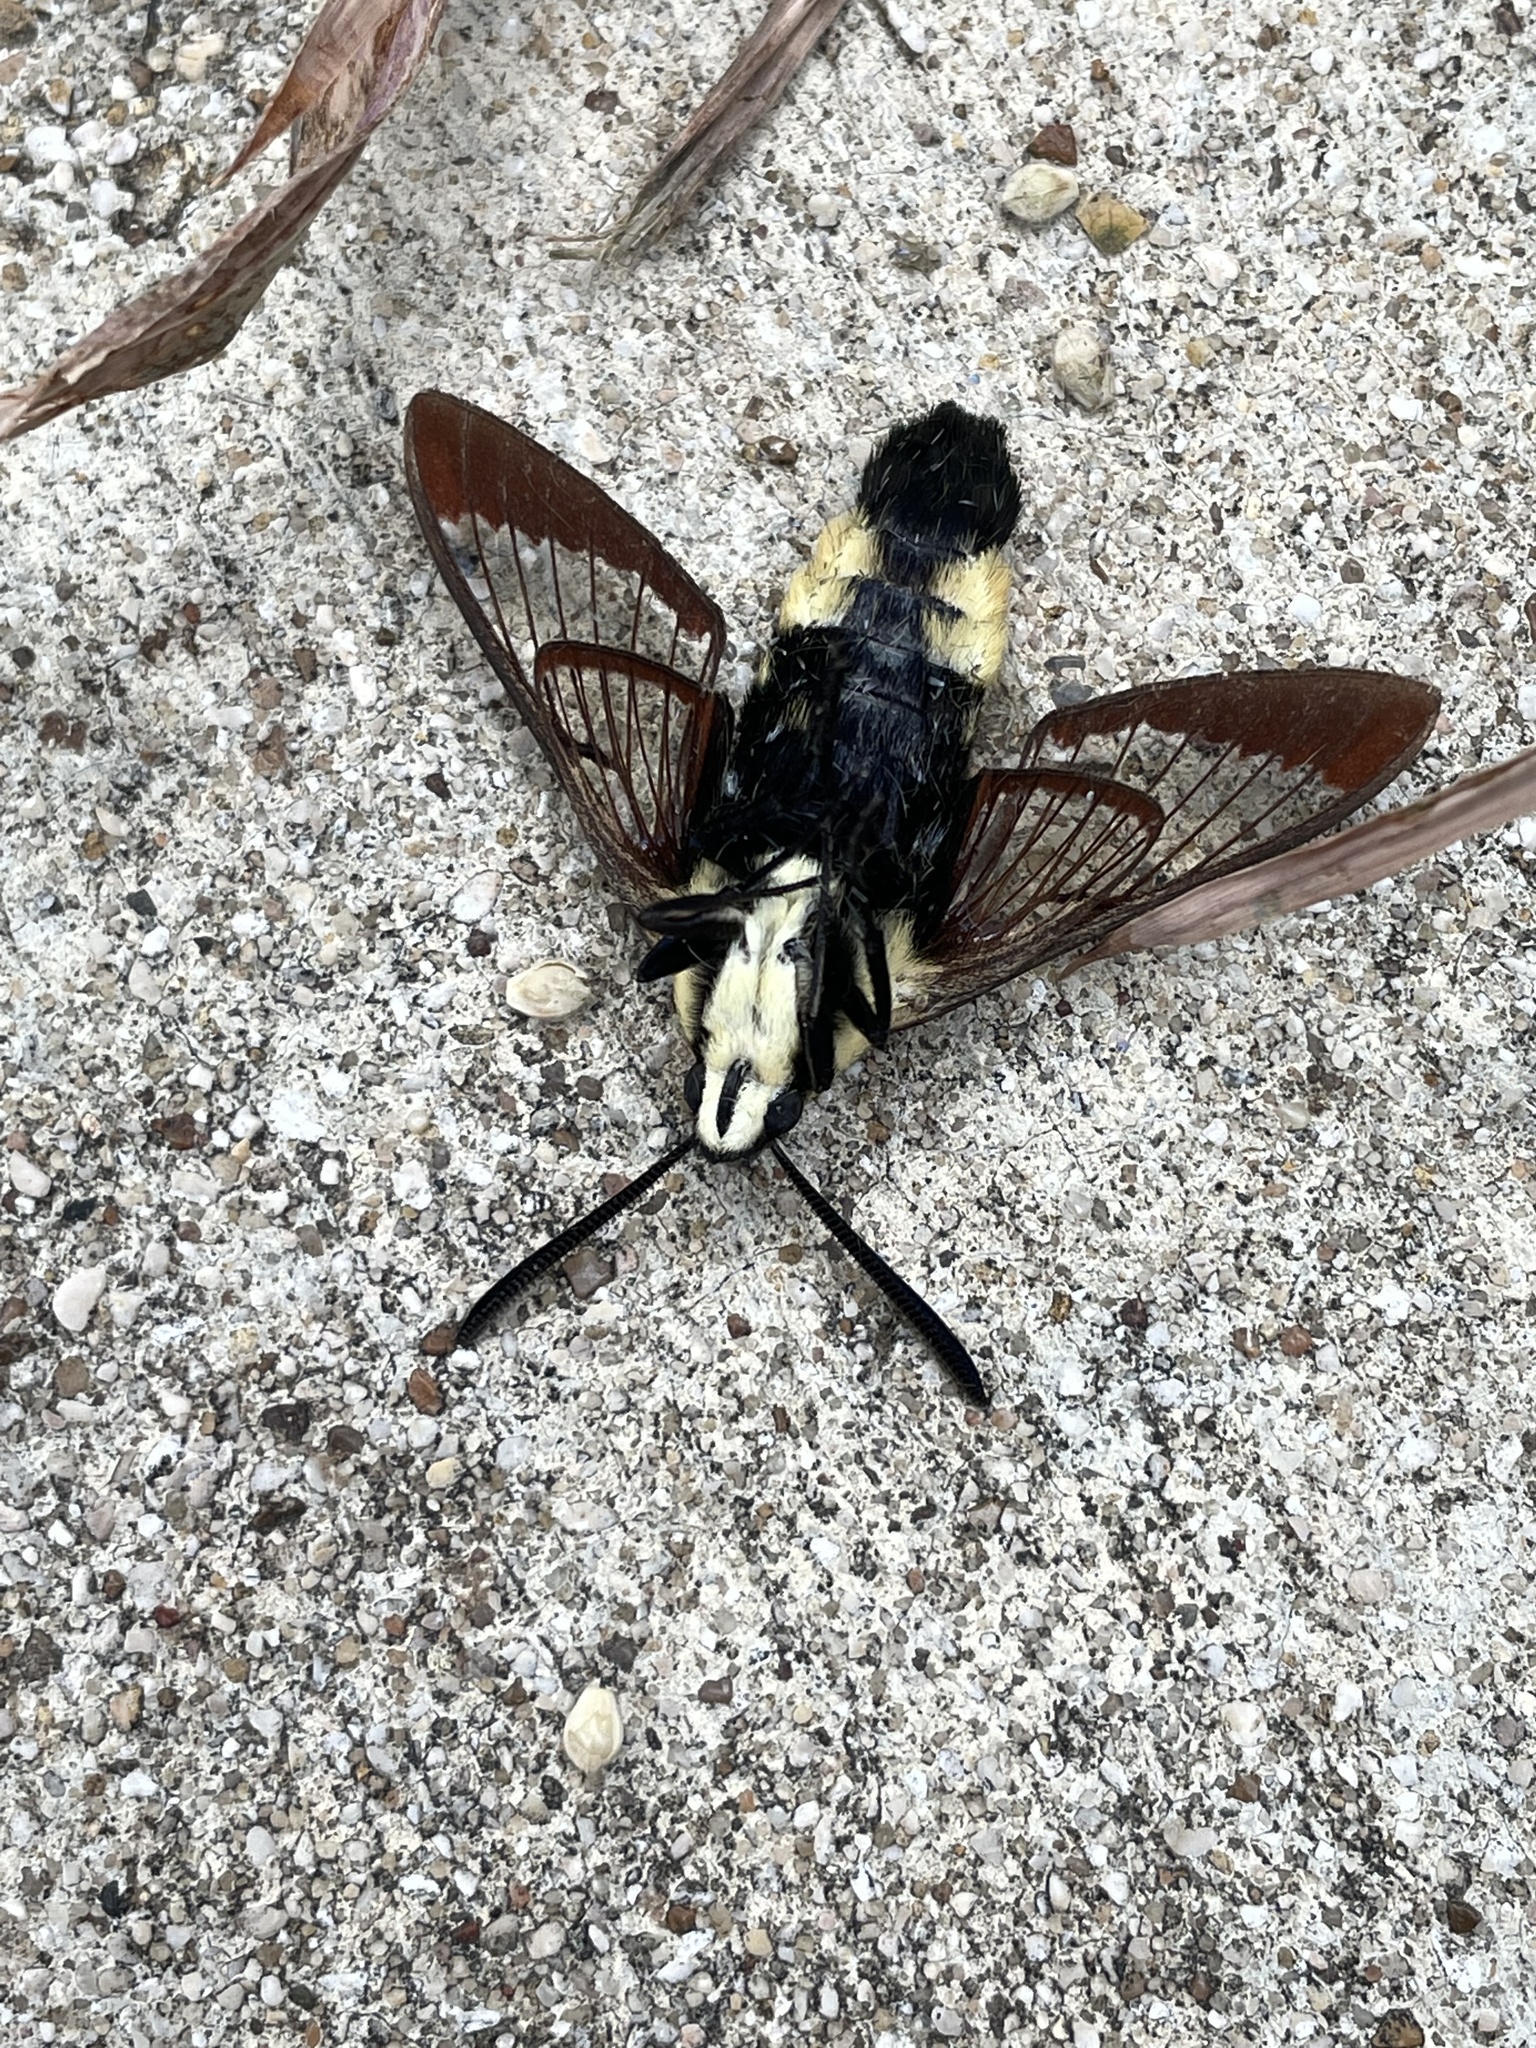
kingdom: Animalia
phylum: Arthropoda
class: Insecta
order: Lepidoptera
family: Sphingidae
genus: Hemaris
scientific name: Hemaris diffinis
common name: Bumblebee moth
